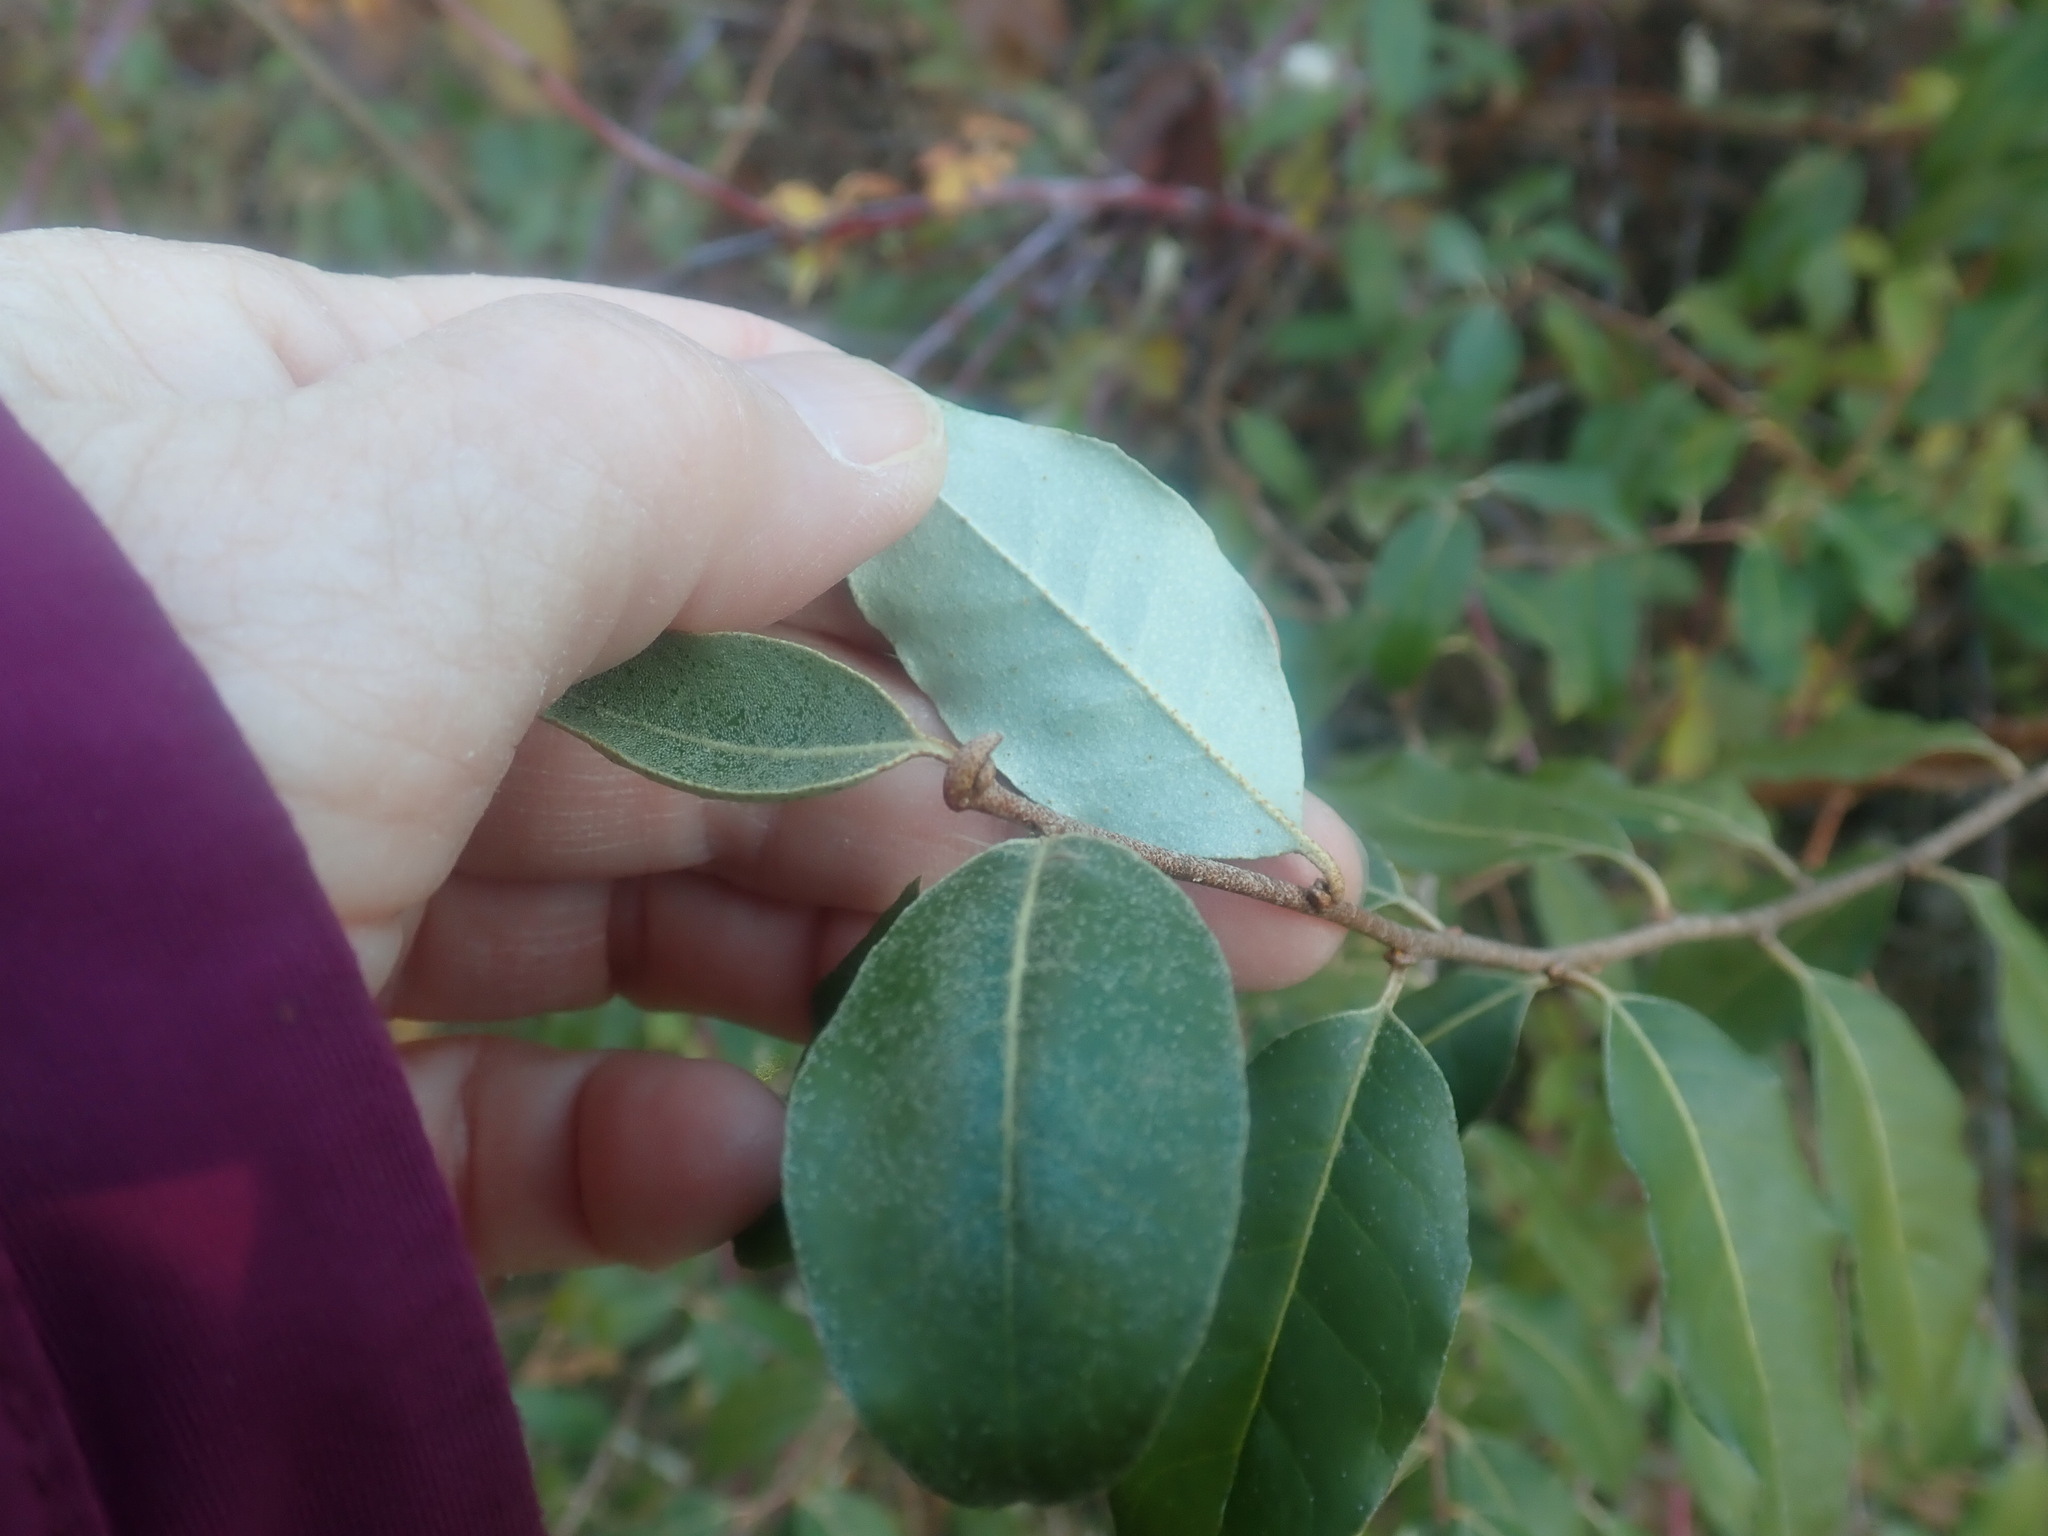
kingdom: Plantae
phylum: Tracheophyta
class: Magnoliopsida
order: Rosales
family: Elaeagnaceae
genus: Elaeagnus
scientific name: Elaeagnus umbellata
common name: Autumn olive
